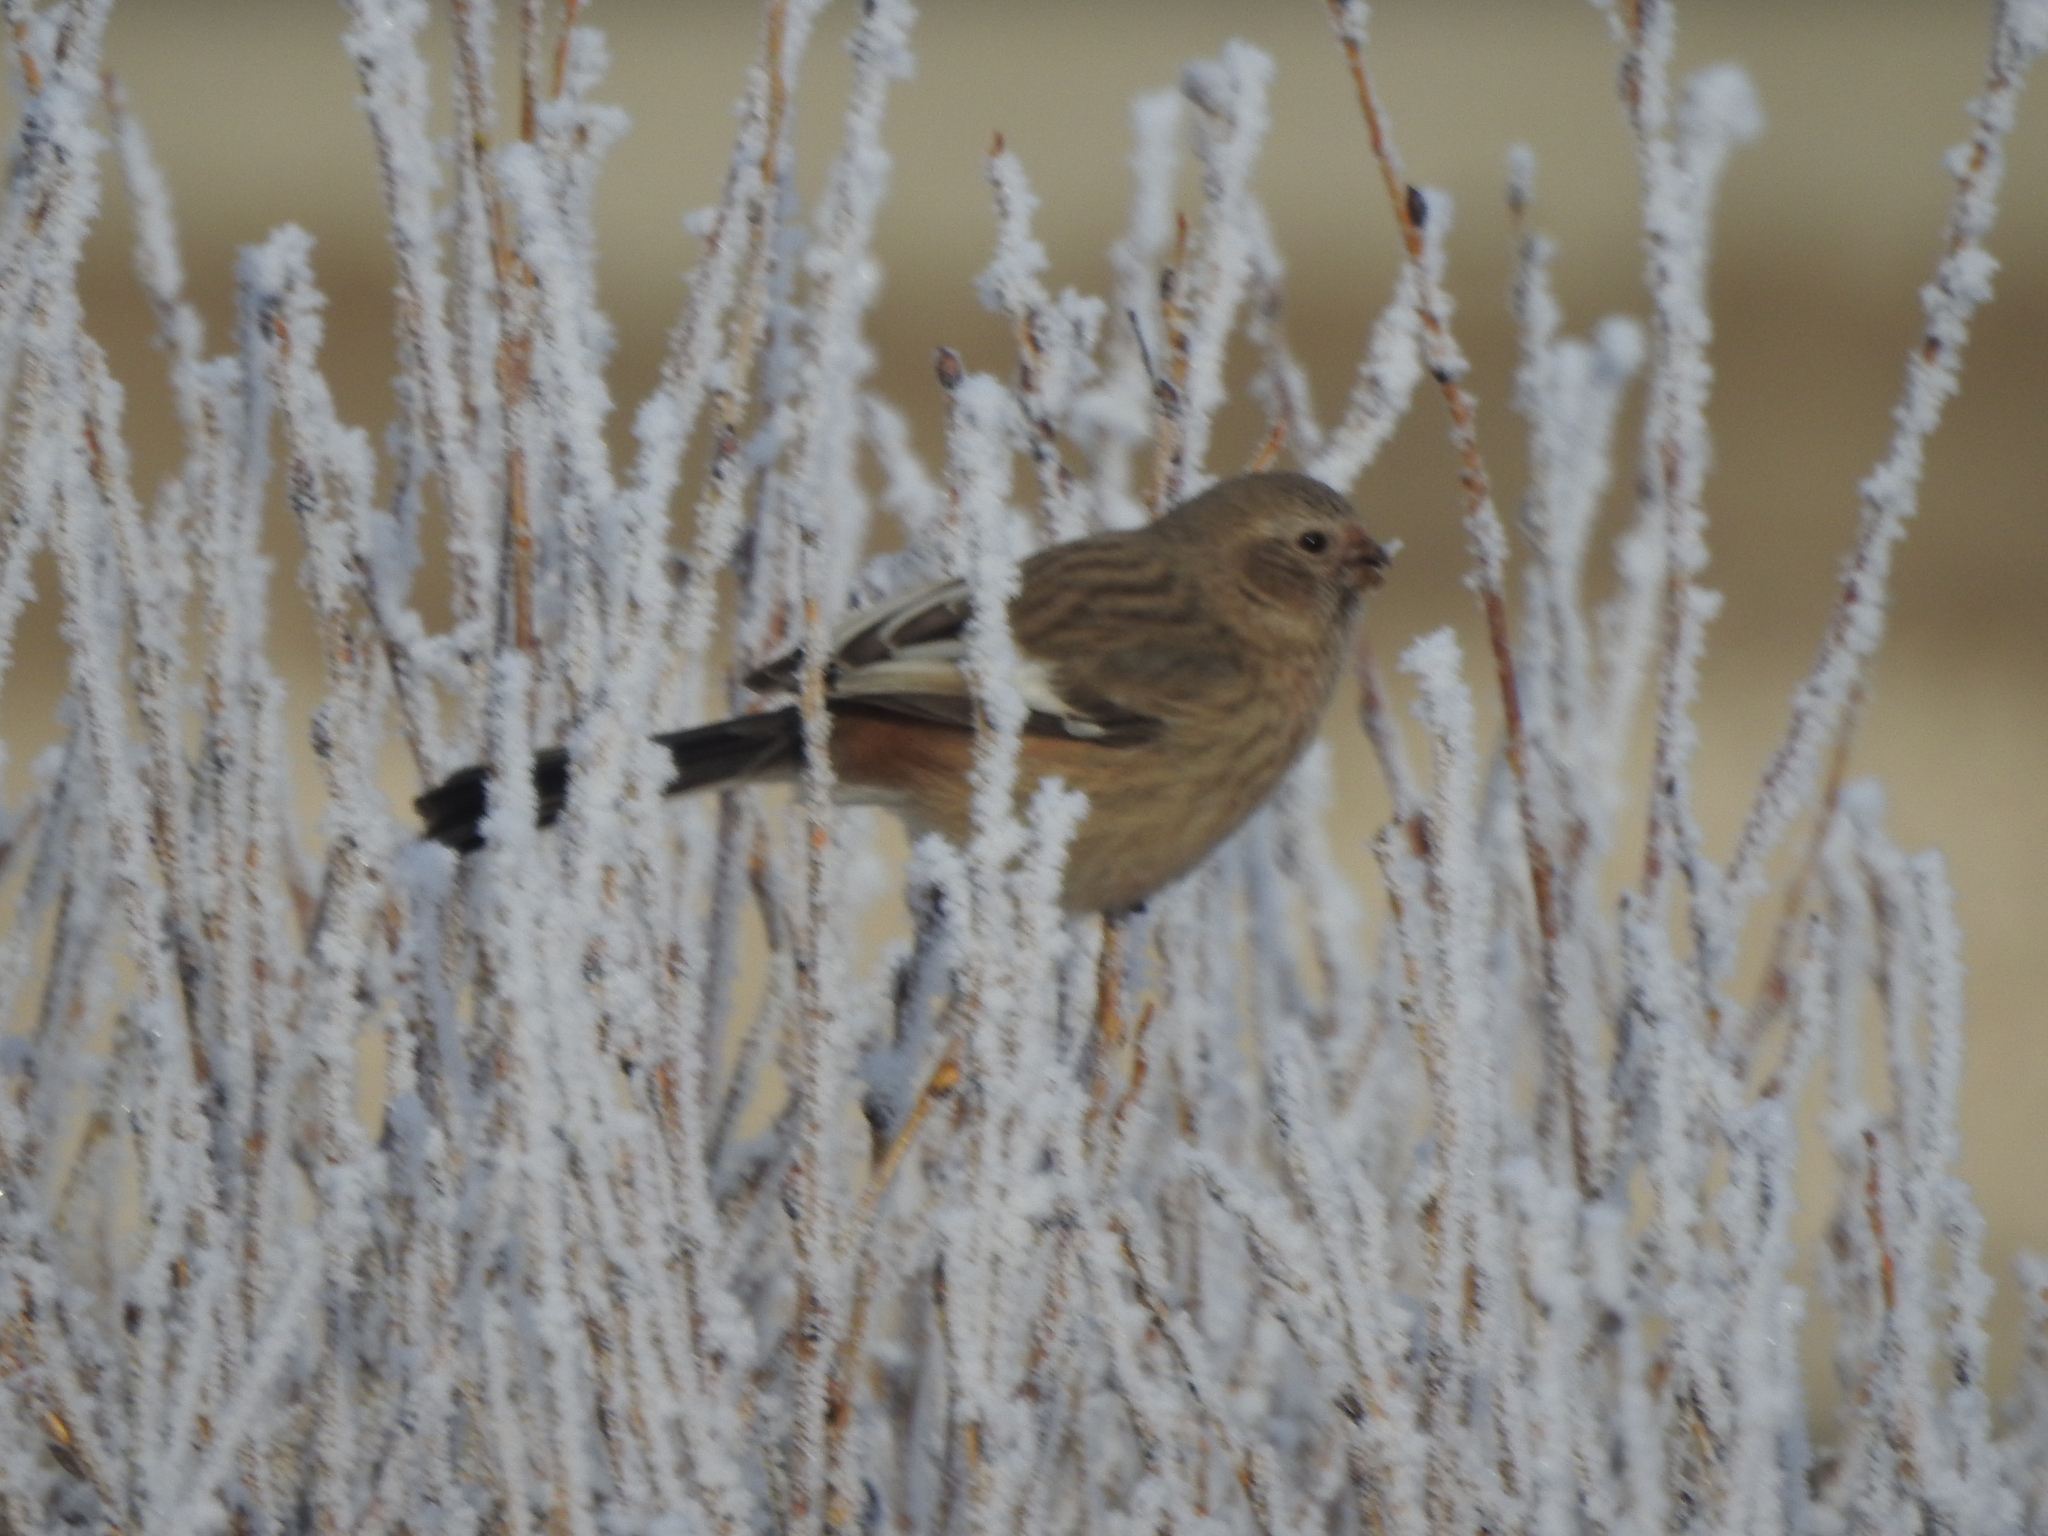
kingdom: Animalia
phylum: Chordata
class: Aves
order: Passeriformes
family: Fringillidae
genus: Carpodacus
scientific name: Carpodacus sibiricus
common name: Long-tailed rosefinch
